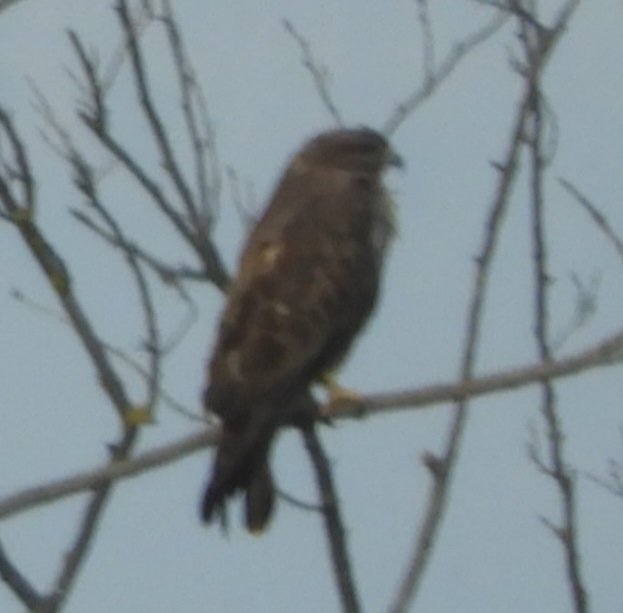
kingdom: Animalia
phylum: Chordata
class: Aves
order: Accipitriformes
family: Accipitridae
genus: Buteo
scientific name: Buteo buteo
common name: Common buzzard
